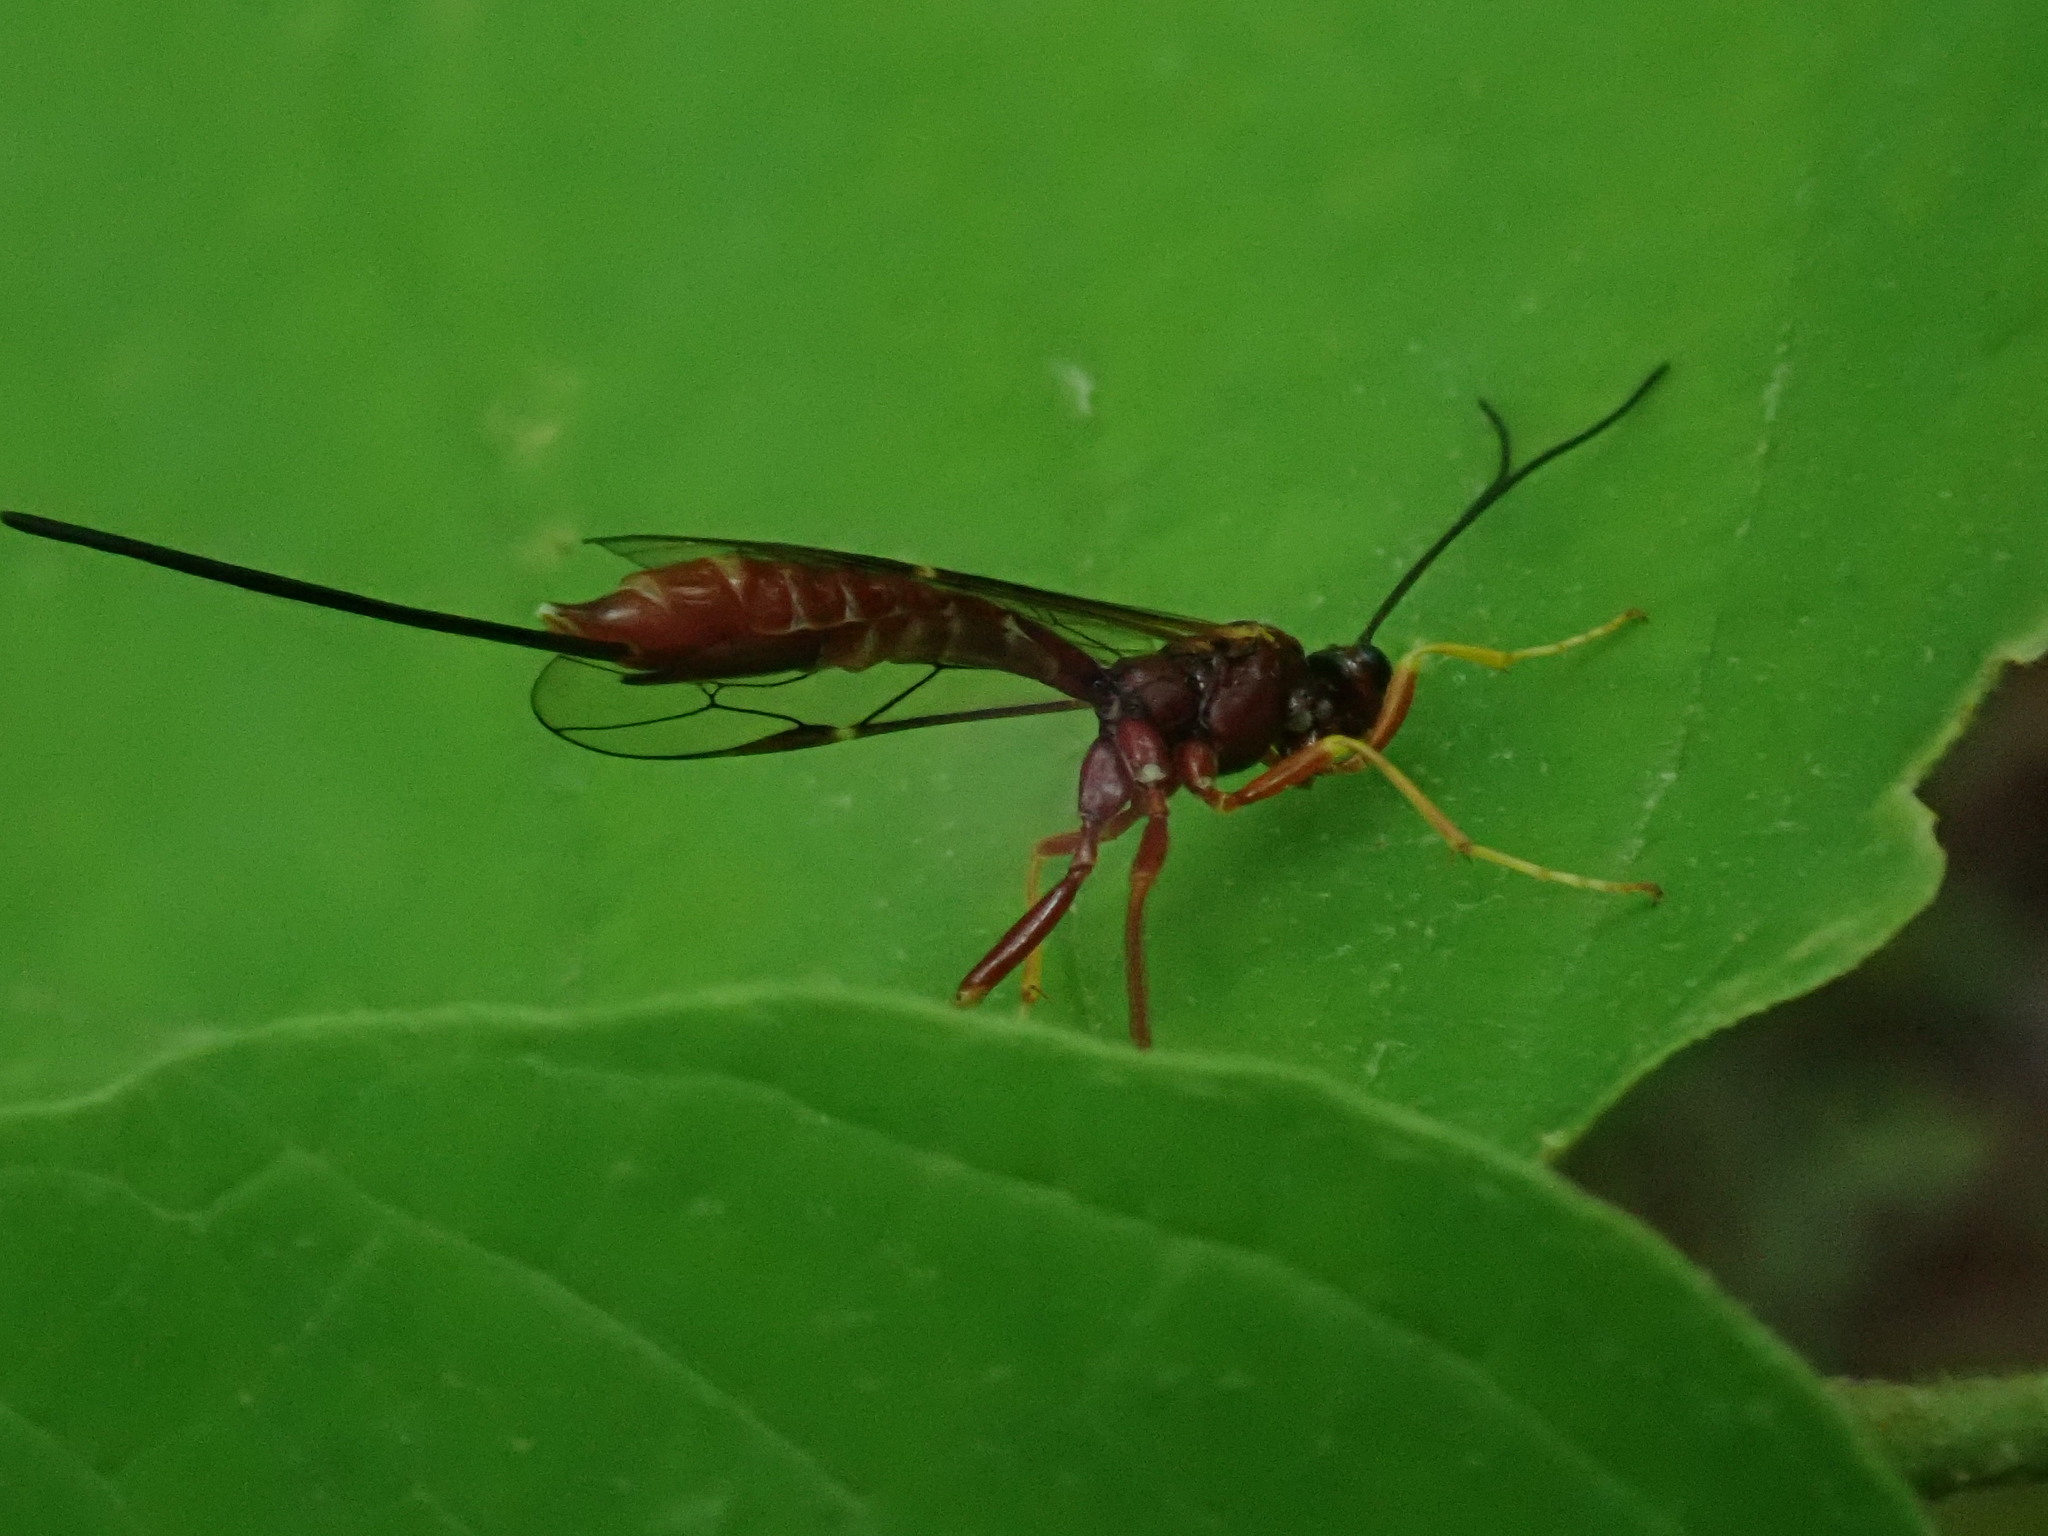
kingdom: Animalia
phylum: Arthropoda
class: Insecta
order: Hymenoptera
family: Ichneumonidae
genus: Coleocentrus
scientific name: Coleocentrus rufus
